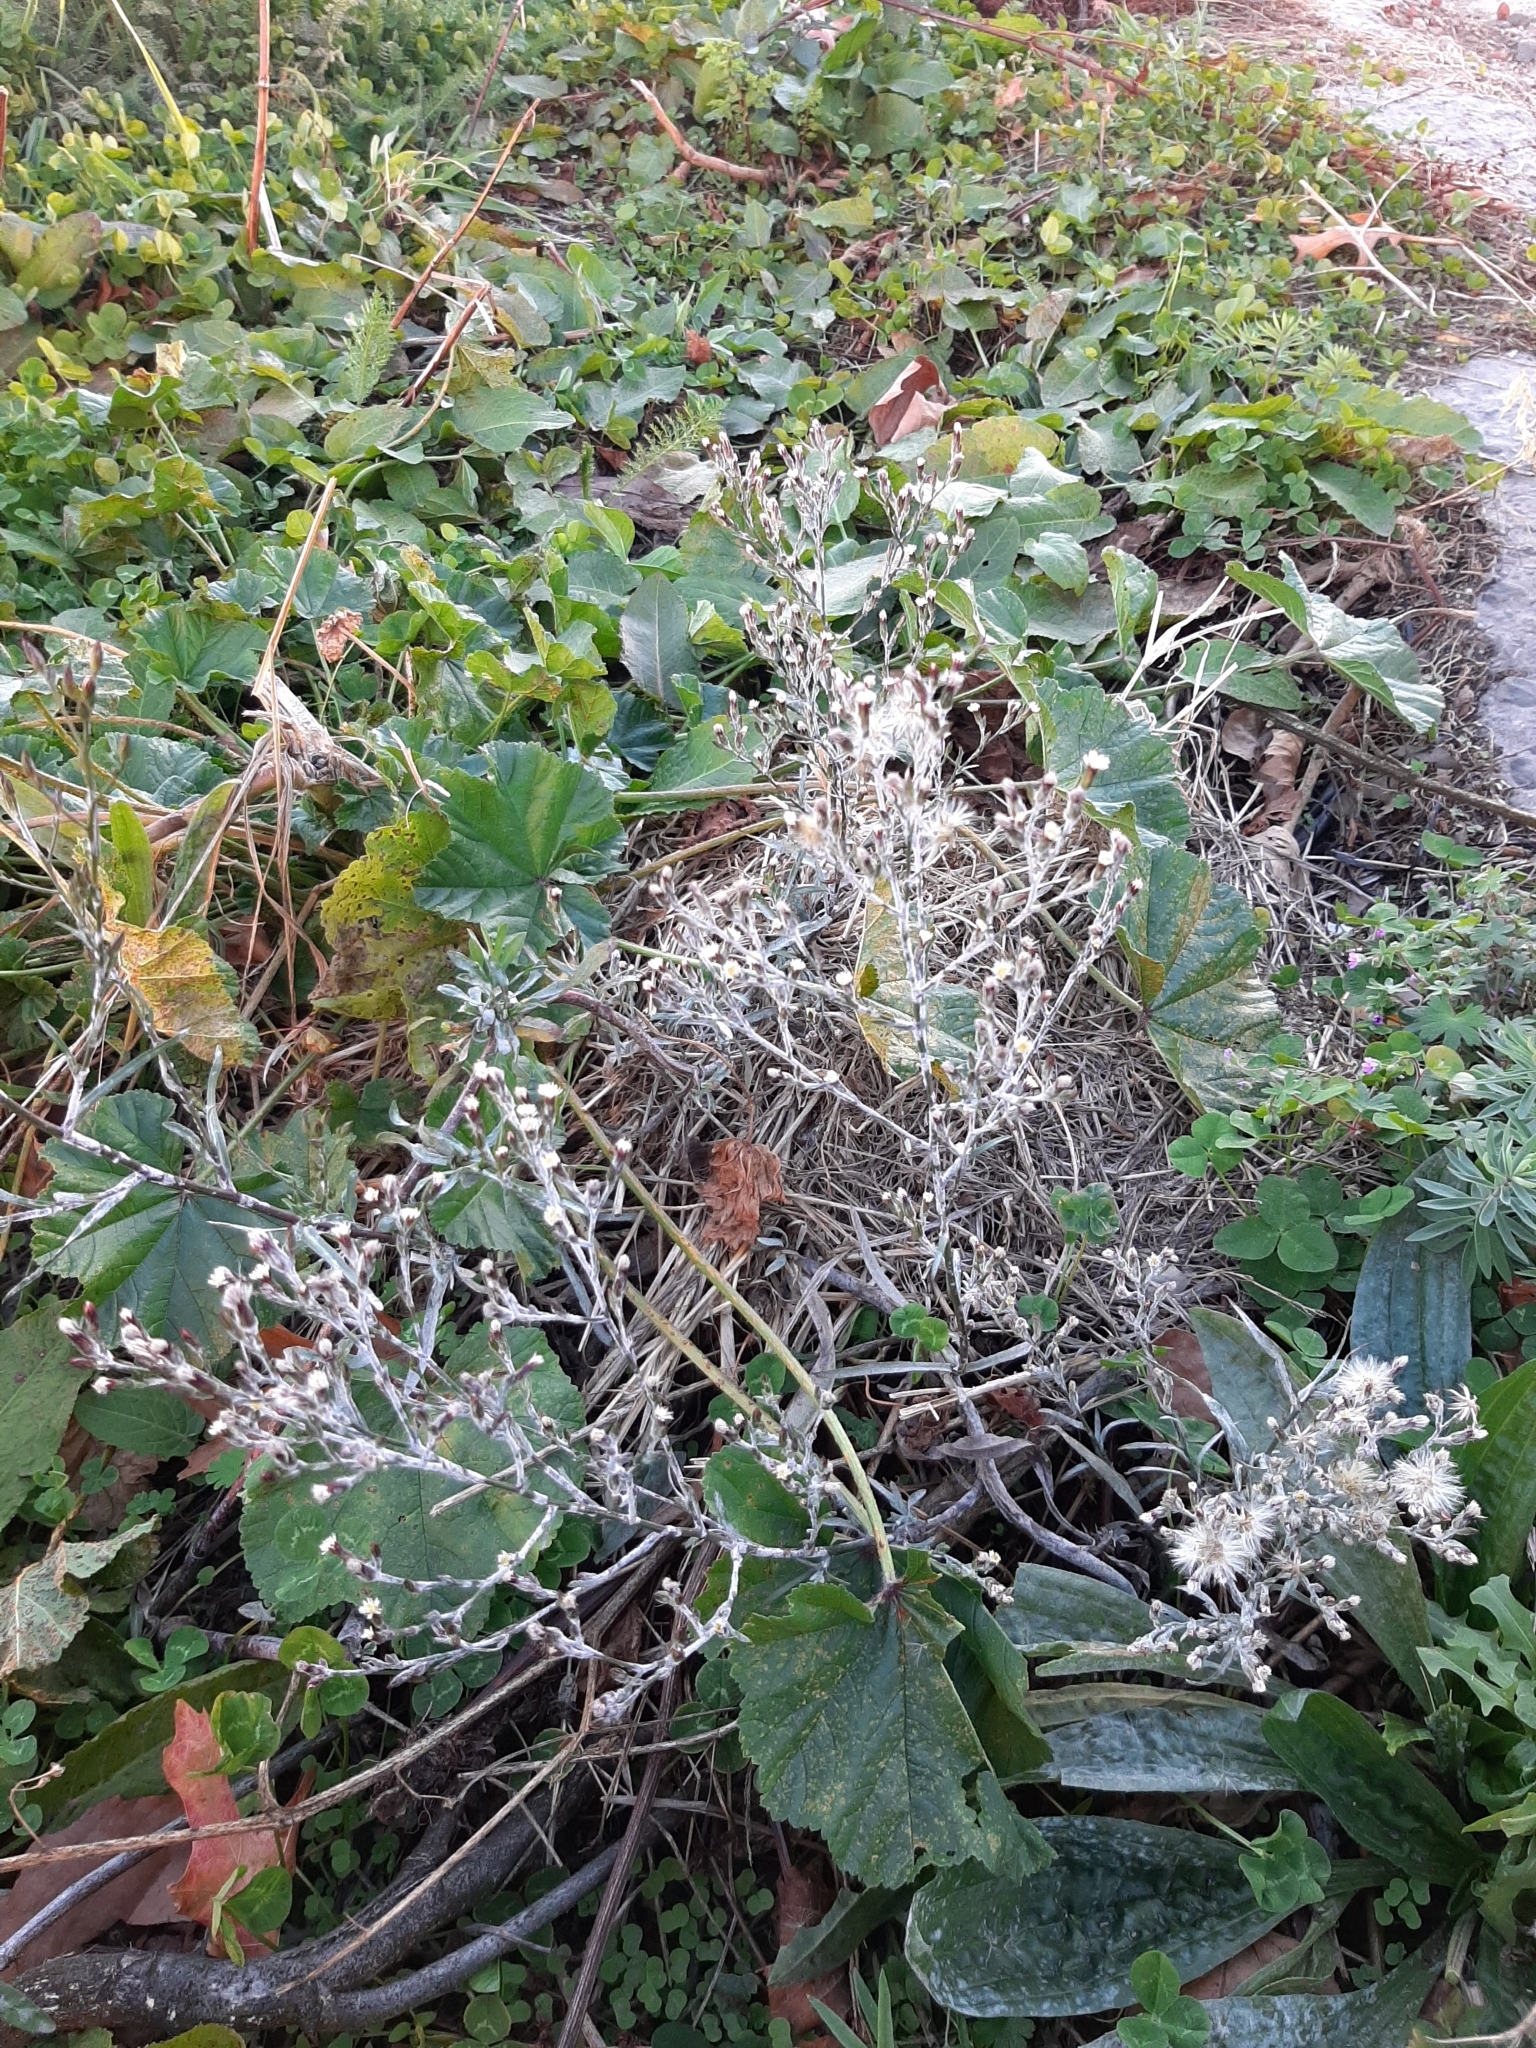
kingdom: Plantae
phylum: Tracheophyta
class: Magnoliopsida
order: Asterales
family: Asteraceae
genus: Senecio
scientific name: Senecio quadridentatus
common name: Cotton fireweed
